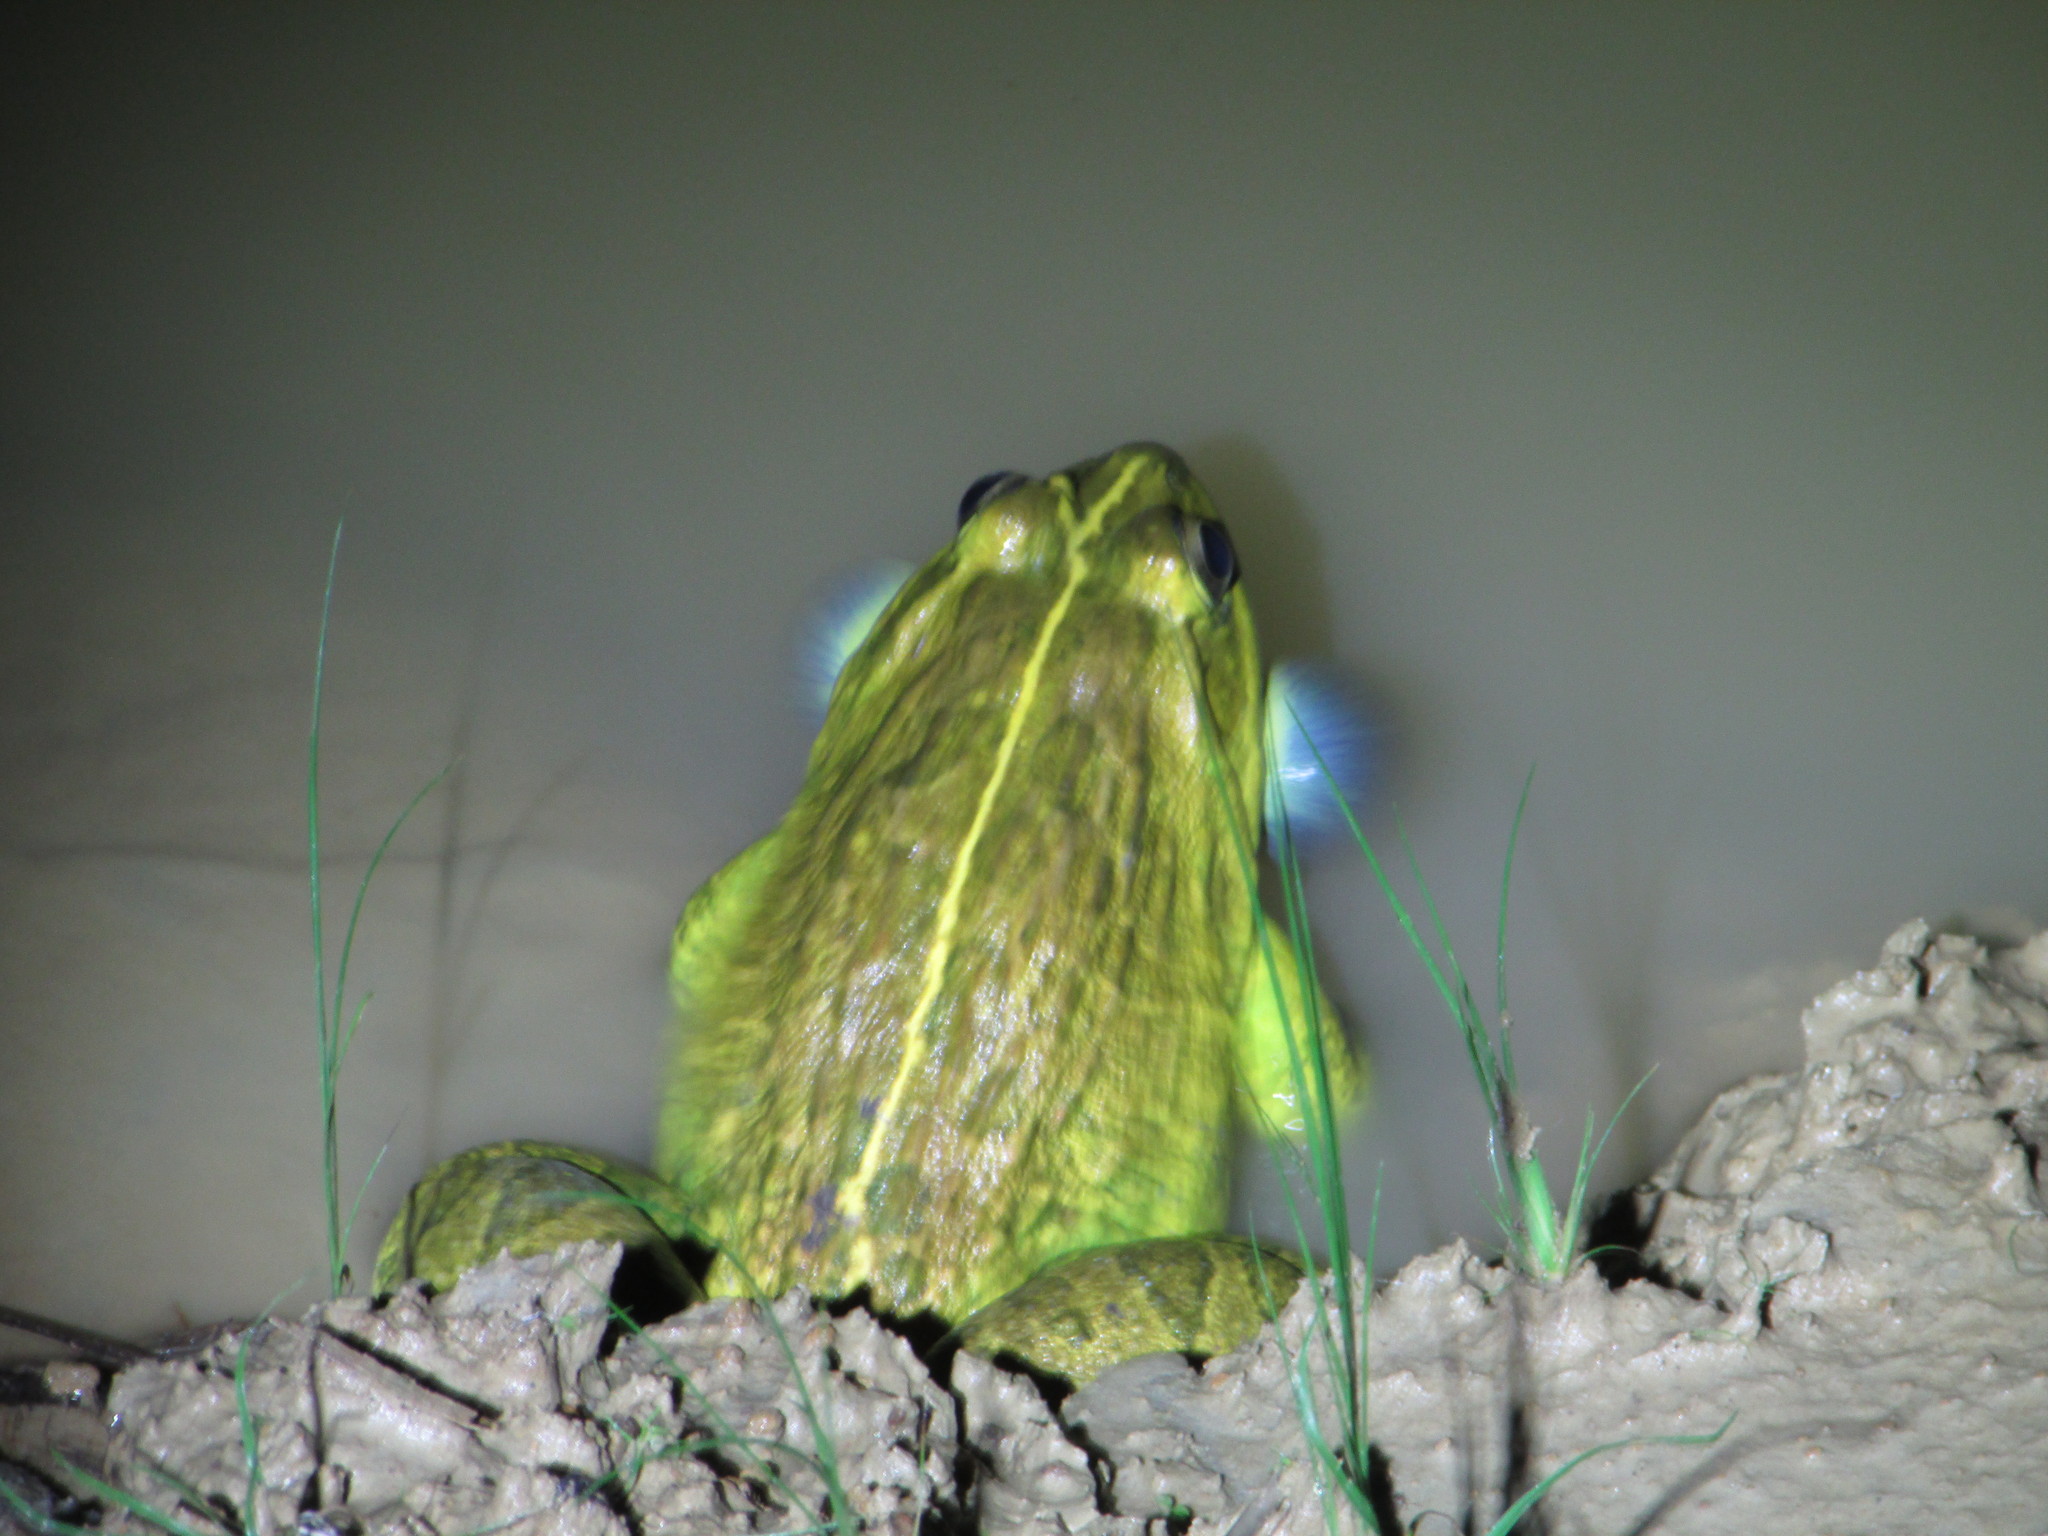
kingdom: Animalia
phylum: Chordata
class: Amphibia
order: Anura
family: Dicroglossidae
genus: Hoplobatrachus
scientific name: Hoplobatrachus tigerinus
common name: Indian bullfrog
